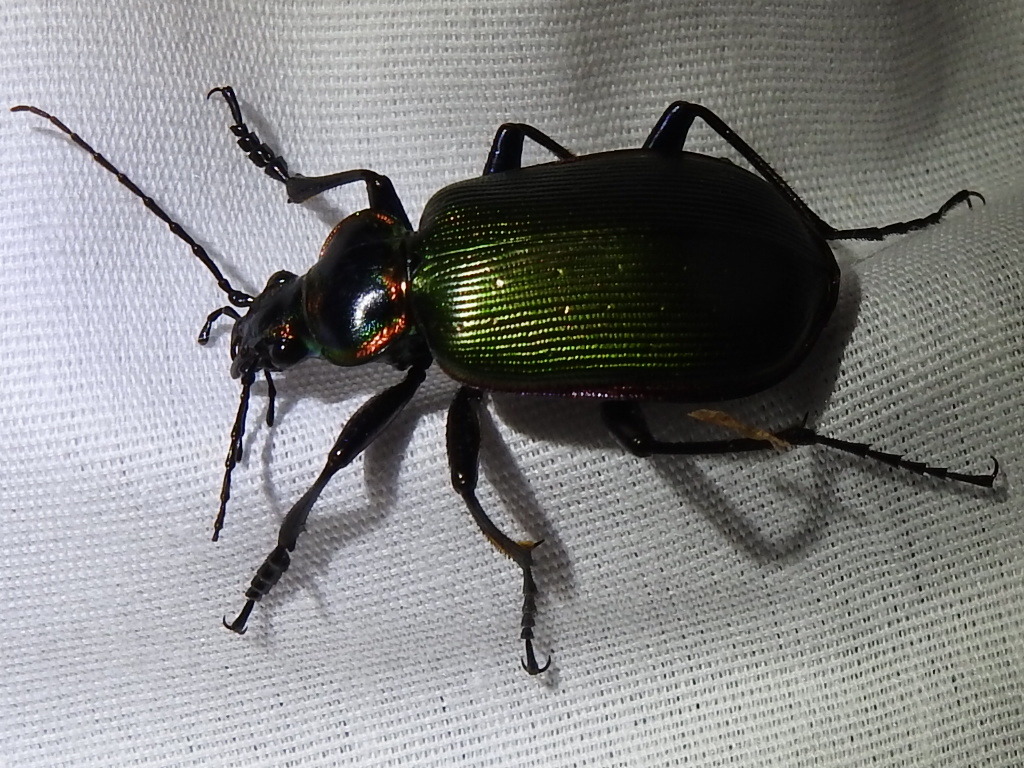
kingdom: Animalia
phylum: Arthropoda
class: Insecta
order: Coleoptera
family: Carabidae
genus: Calosoma
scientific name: Calosoma scrutator
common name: Fiery searcher beetle
